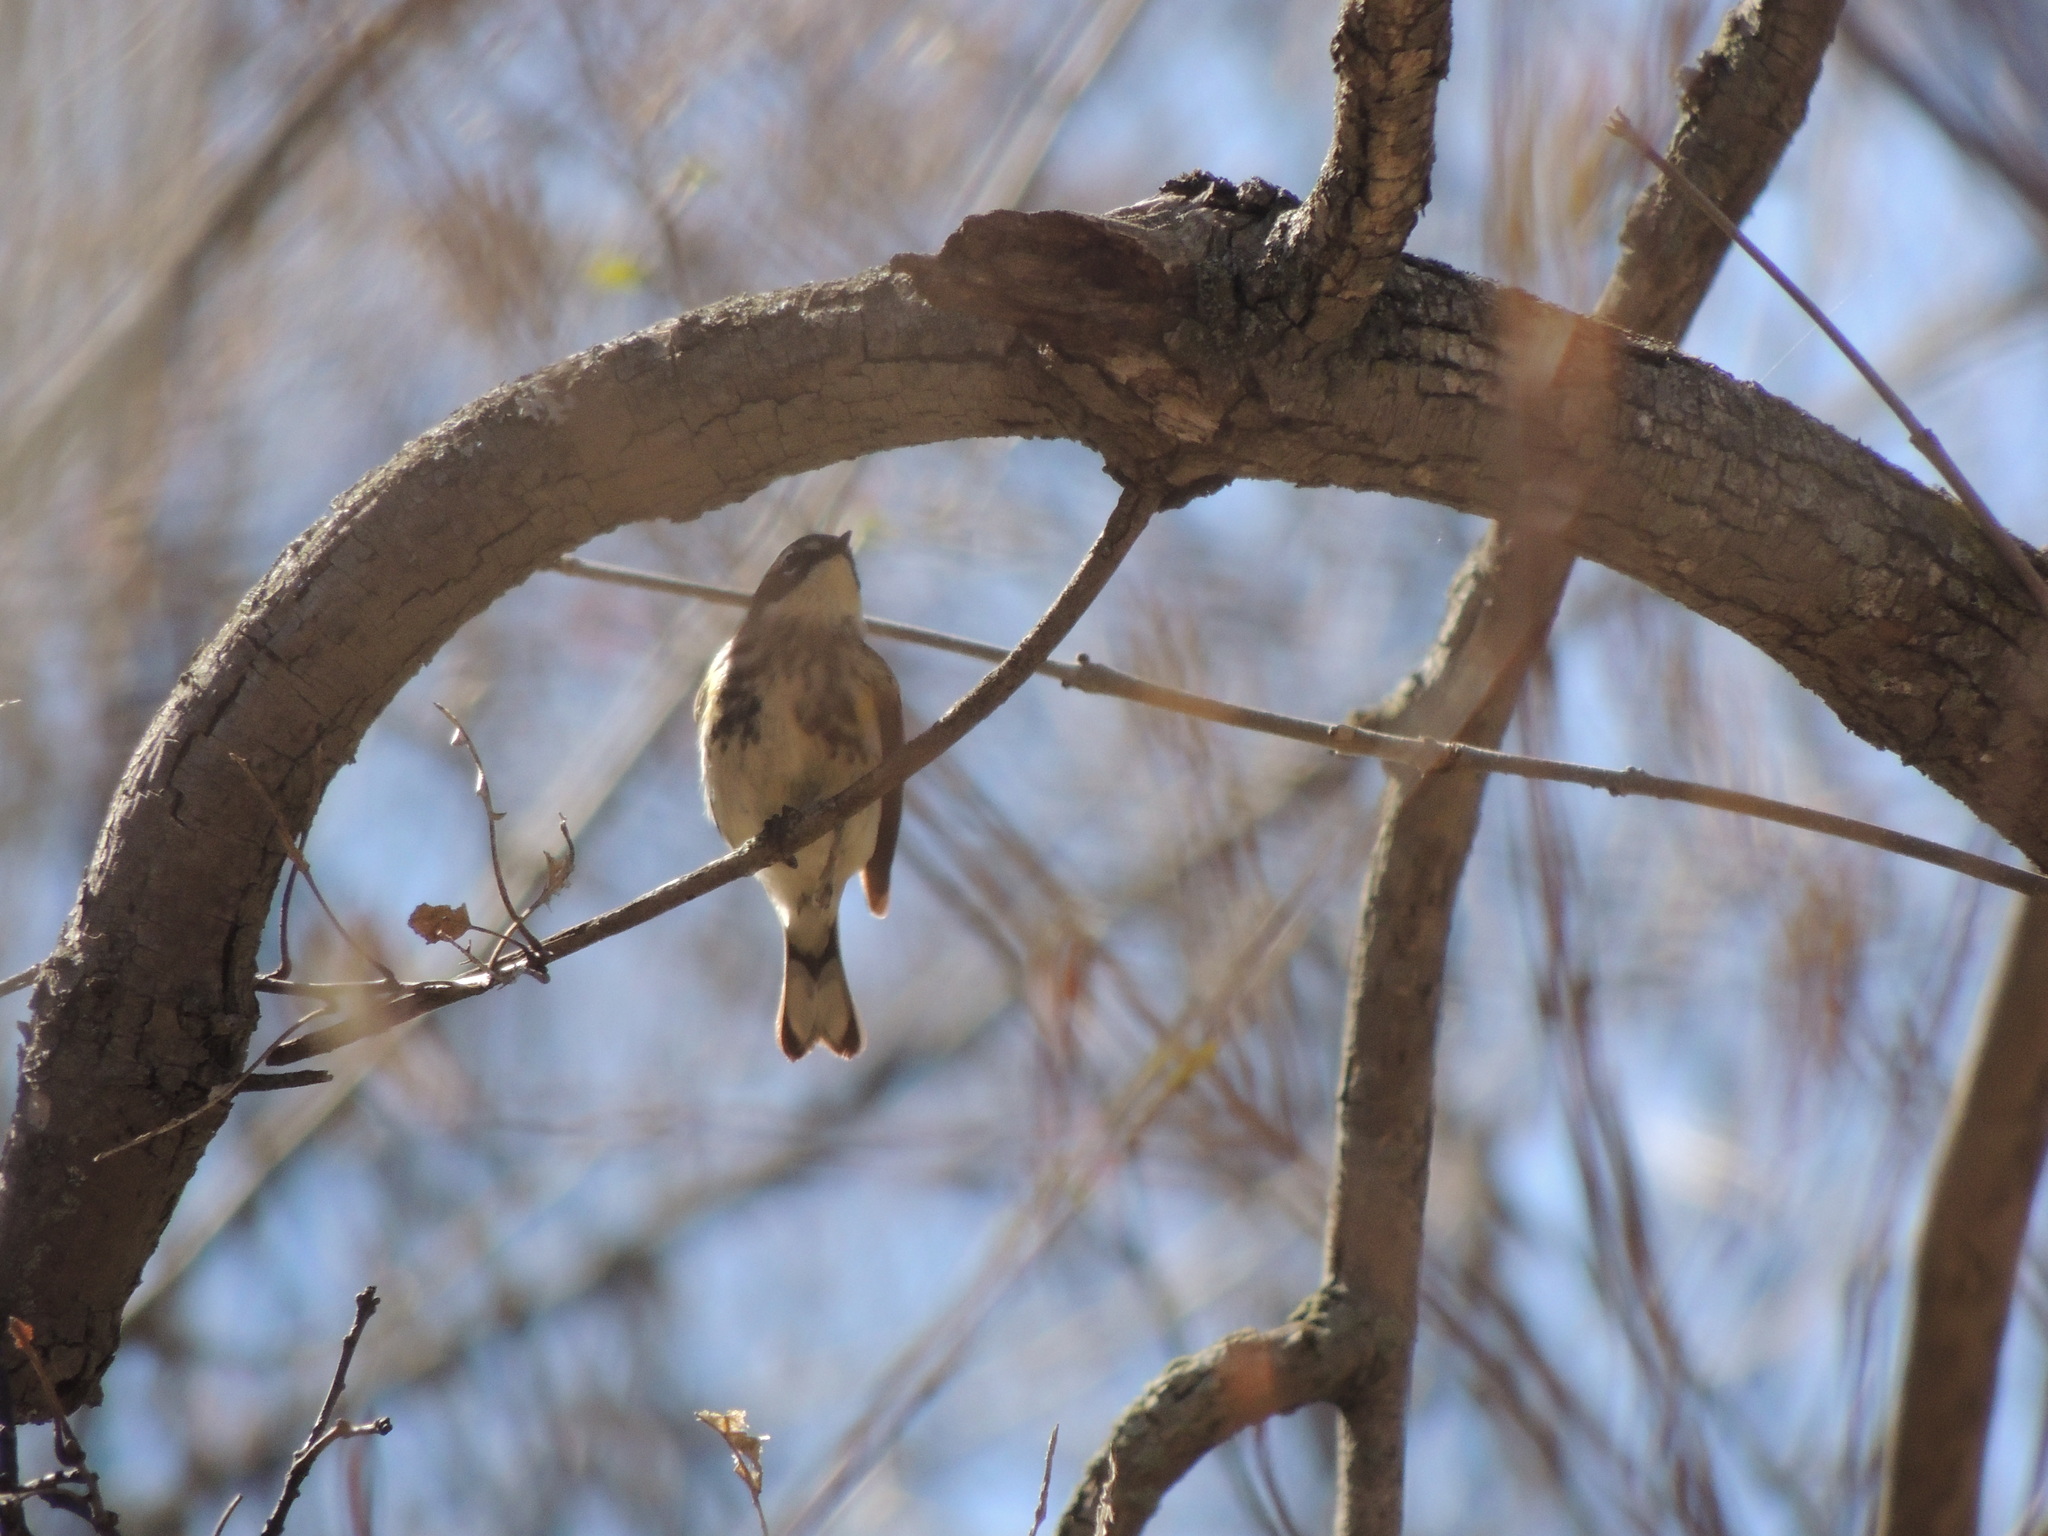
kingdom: Animalia
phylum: Chordata
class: Aves
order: Passeriformes
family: Parulidae
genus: Setophaga
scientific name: Setophaga coronata
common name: Myrtle warbler
